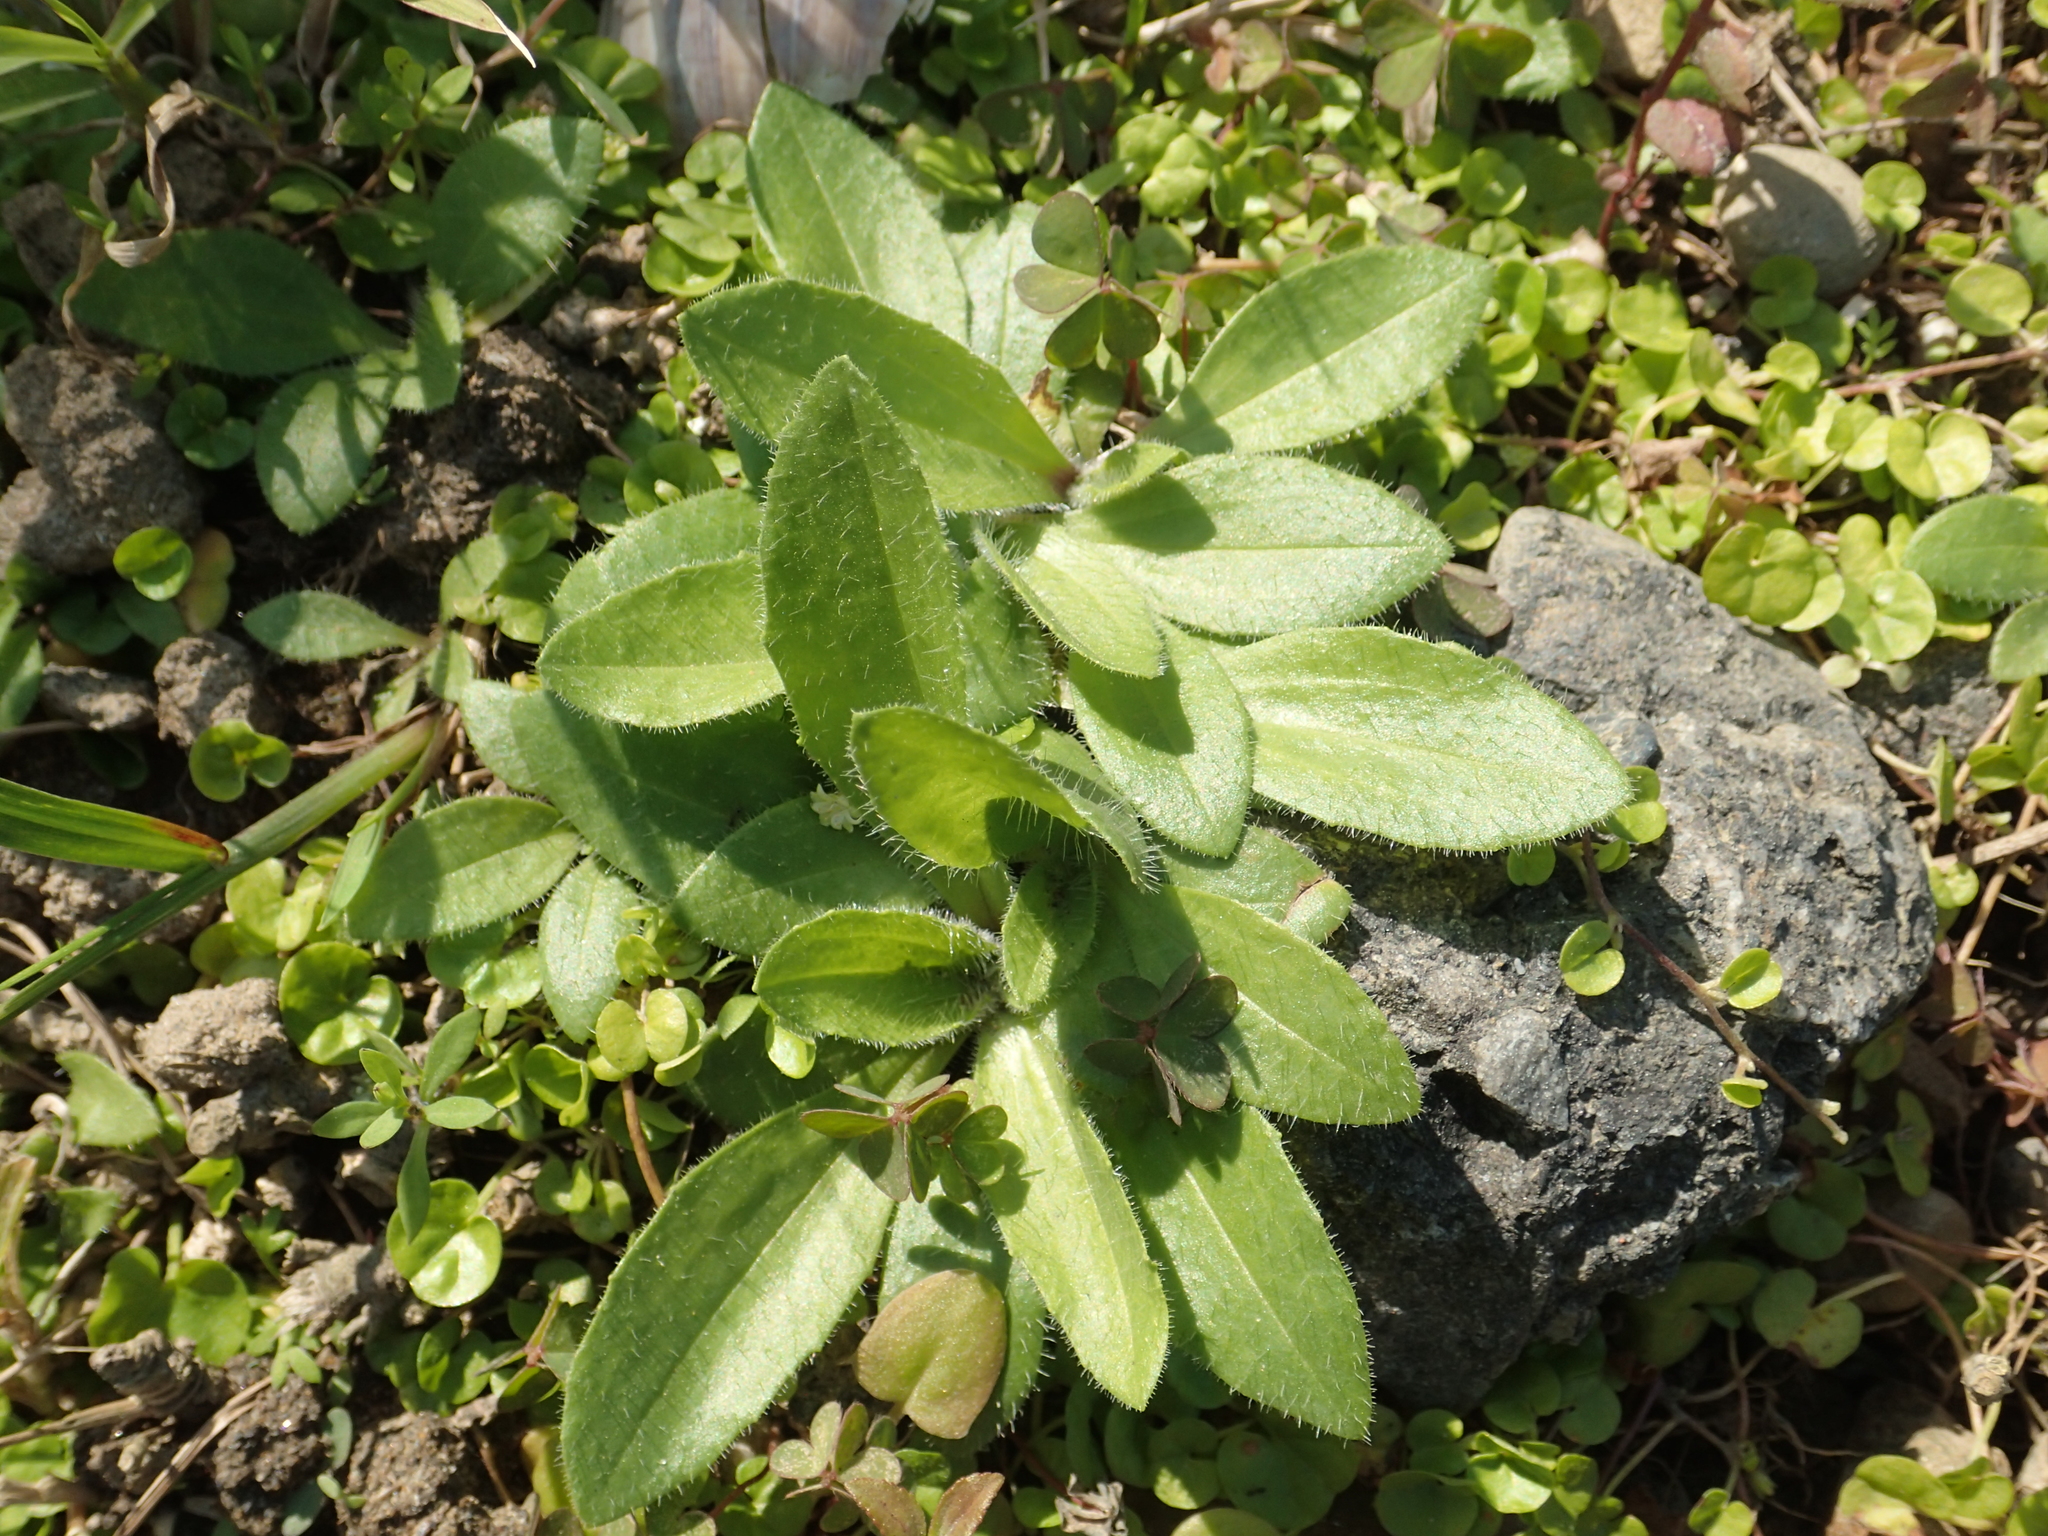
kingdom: Plantae
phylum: Tracheophyta
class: Magnoliopsida
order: Lamiales
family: Plantaginaceae
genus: Plantago
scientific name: Plantago virginica
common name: Hoary plantain
